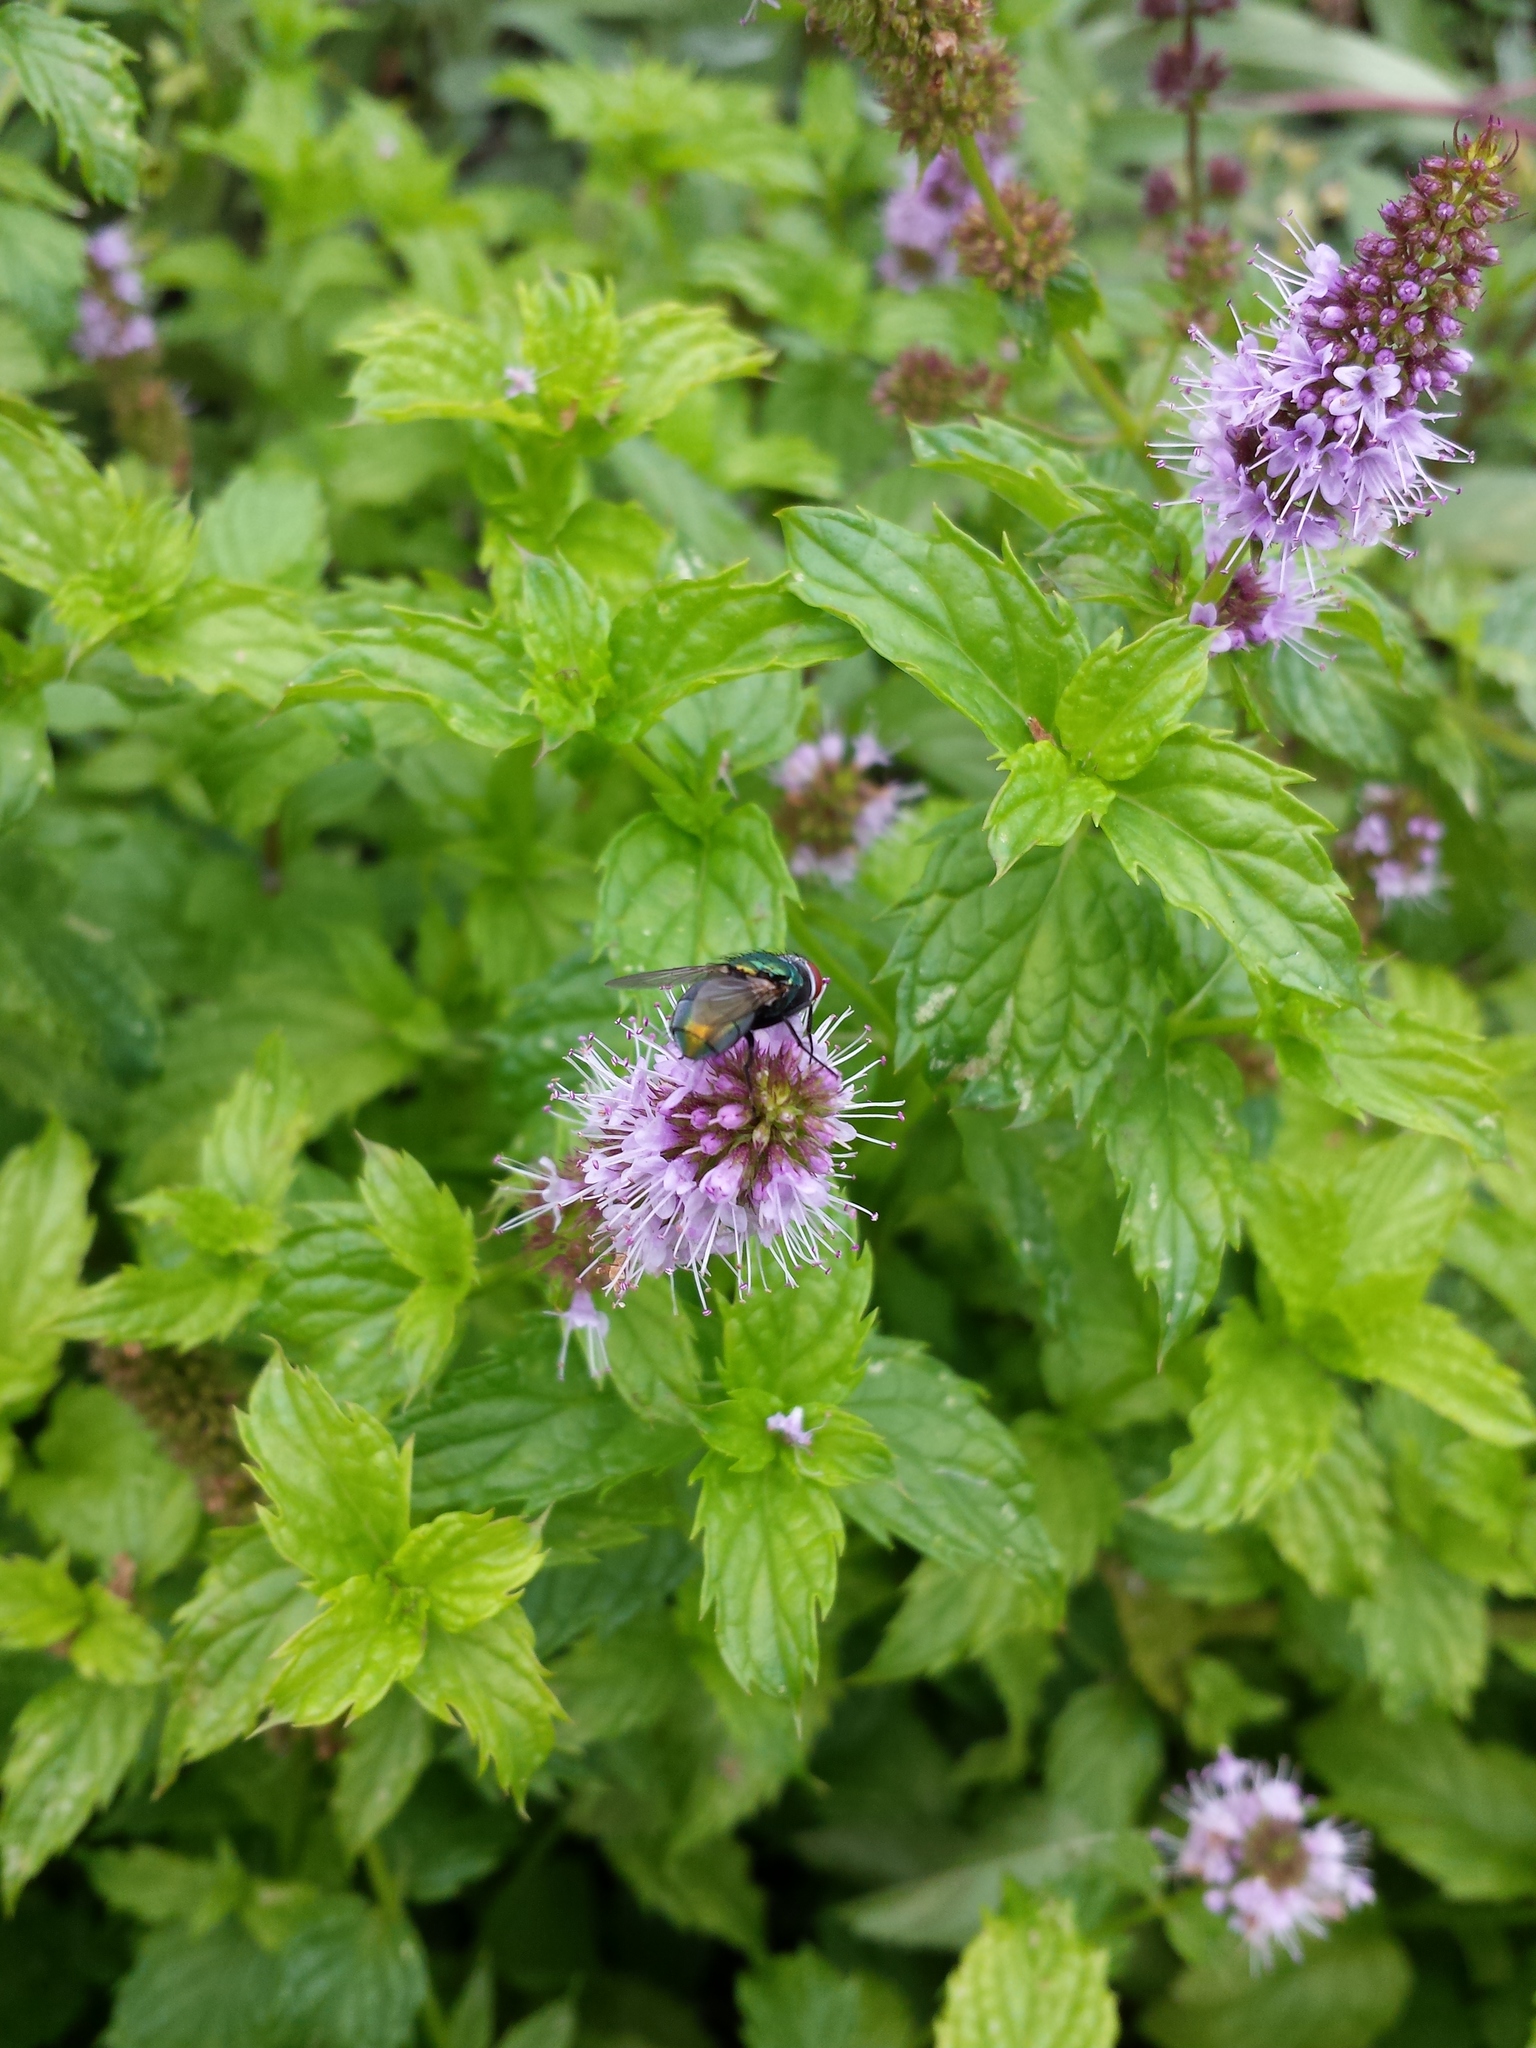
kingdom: Animalia
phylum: Arthropoda
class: Insecta
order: Diptera
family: Calliphoridae
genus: Lucilia
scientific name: Lucilia sericata
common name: Blow fly
